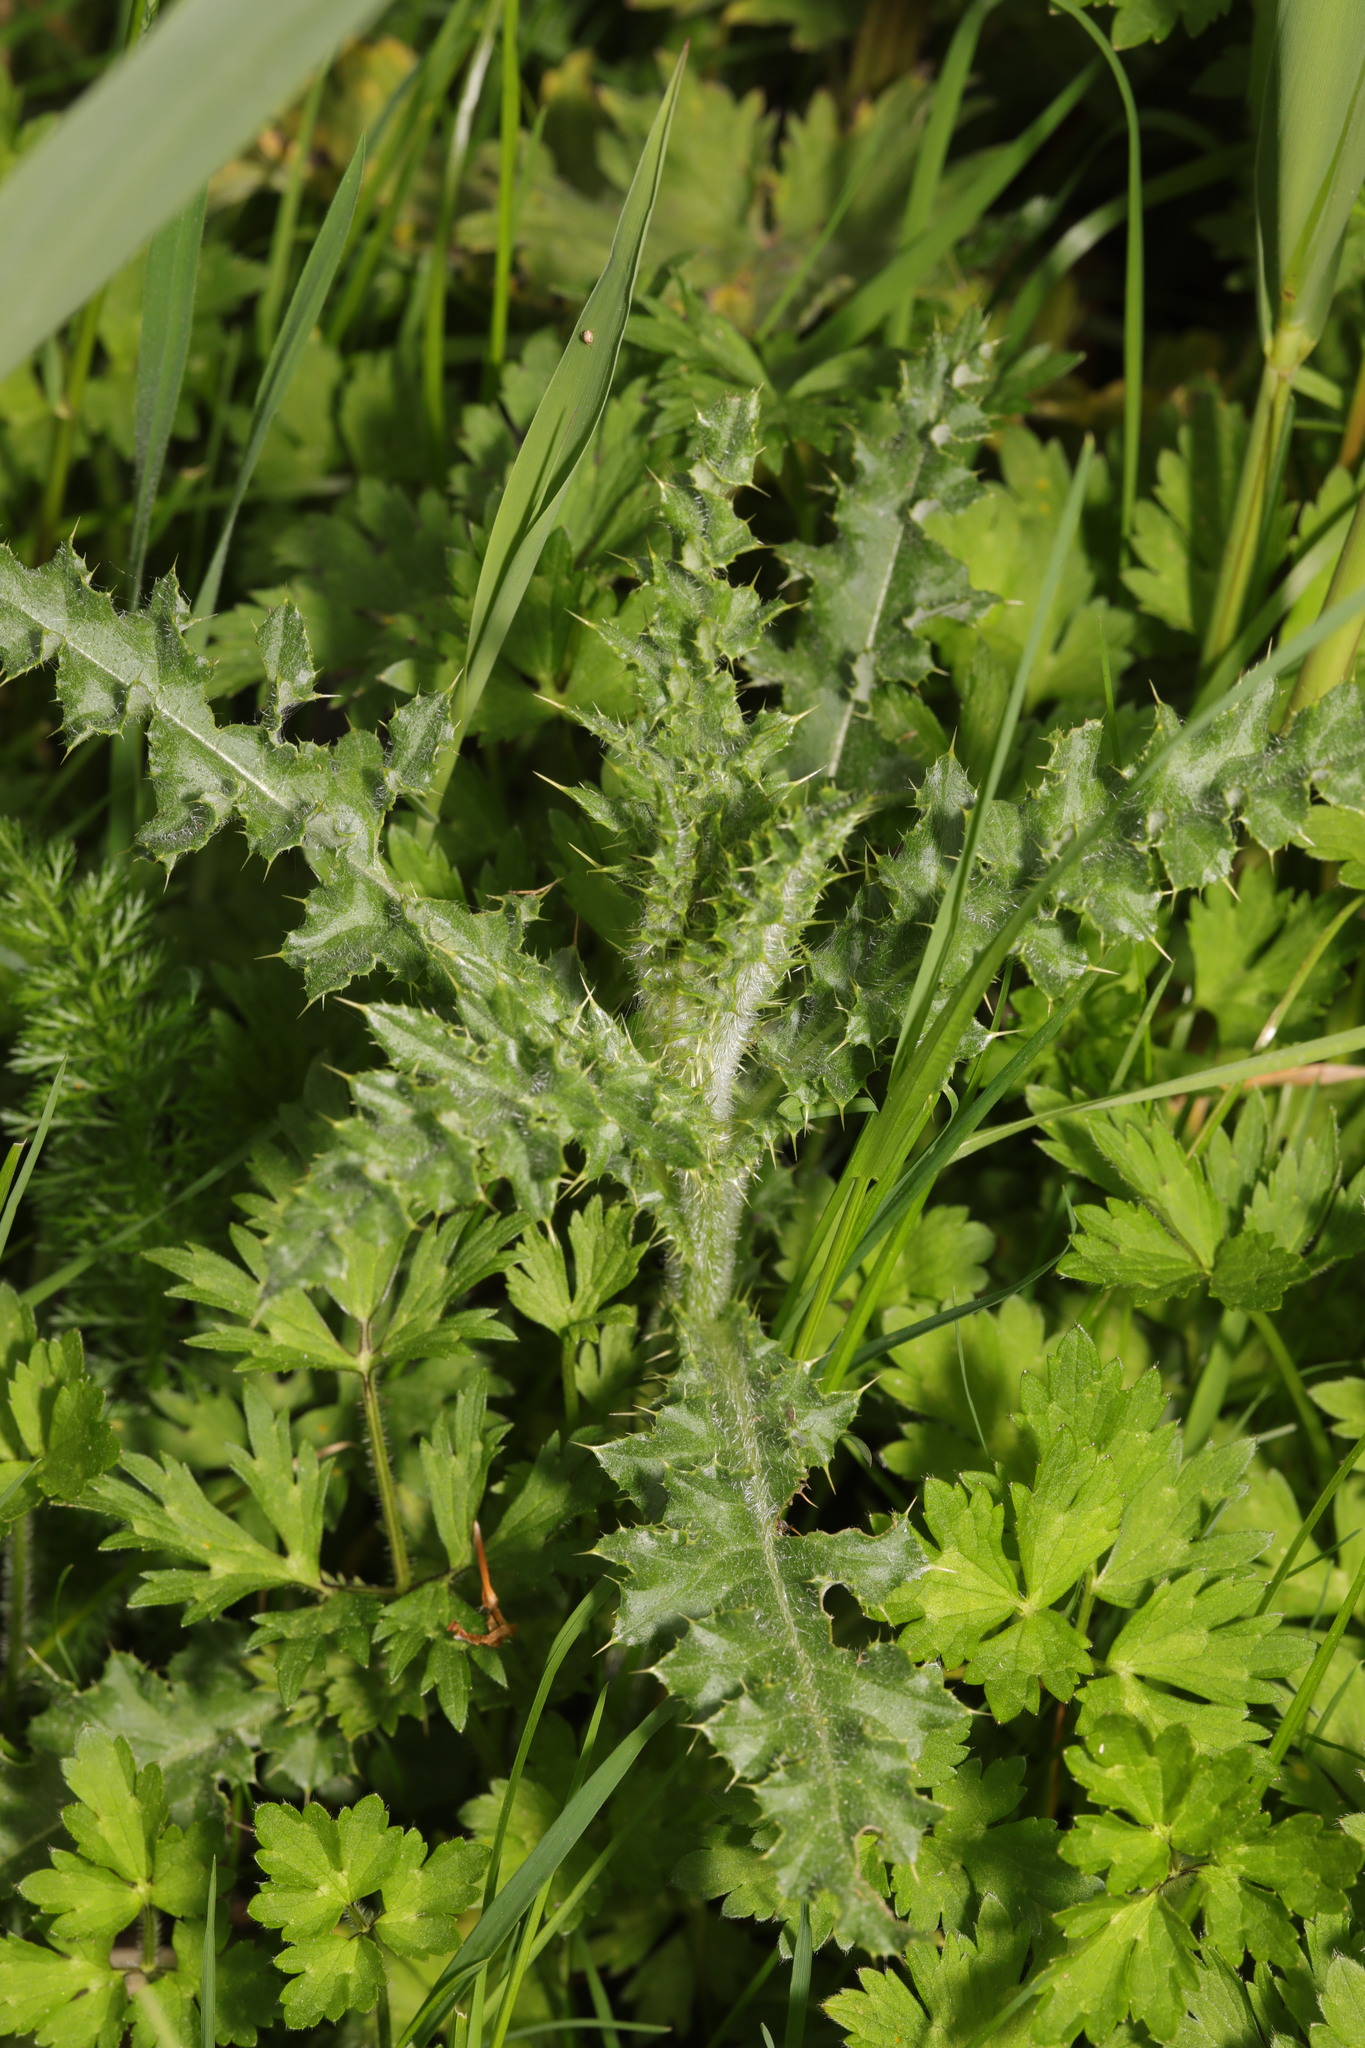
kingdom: Plantae
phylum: Tracheophyta
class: Magnoliopsida
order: Asterales
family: Asteraceae
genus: Cirsium
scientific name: Cirsium arvense
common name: Creeping thistle
